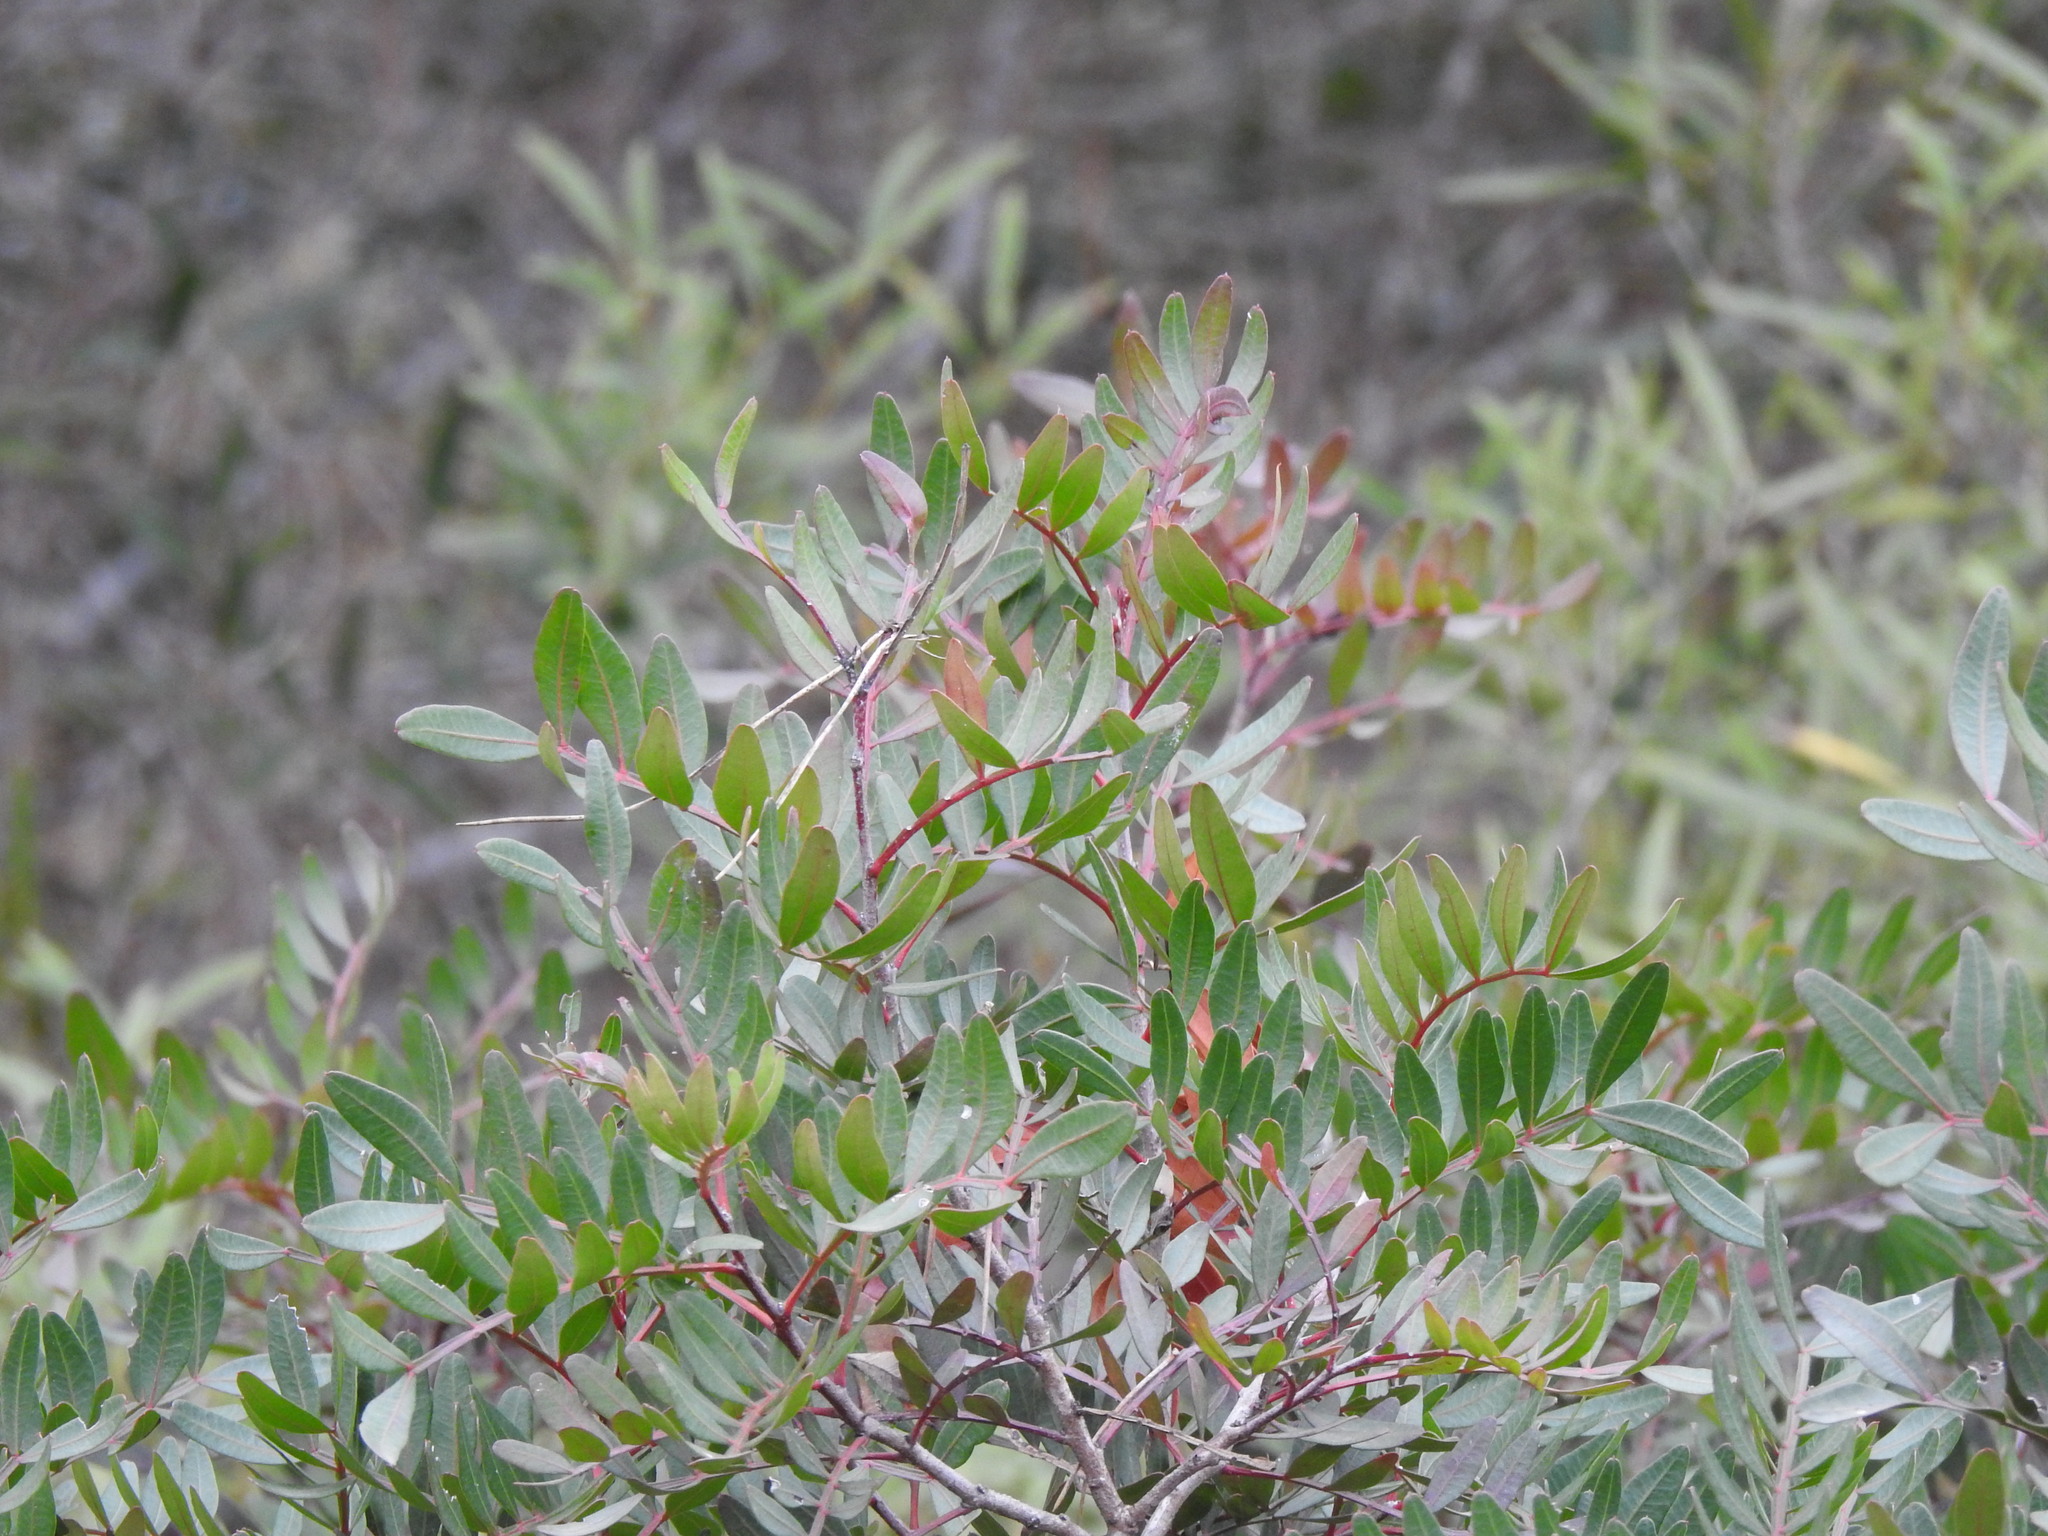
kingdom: Plantae
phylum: Tracheophyta
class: Magnoliopsida
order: Sapindales
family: Anacardiaceae
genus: Pistacia
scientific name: Pistacia lentiscus
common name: Lentisk
